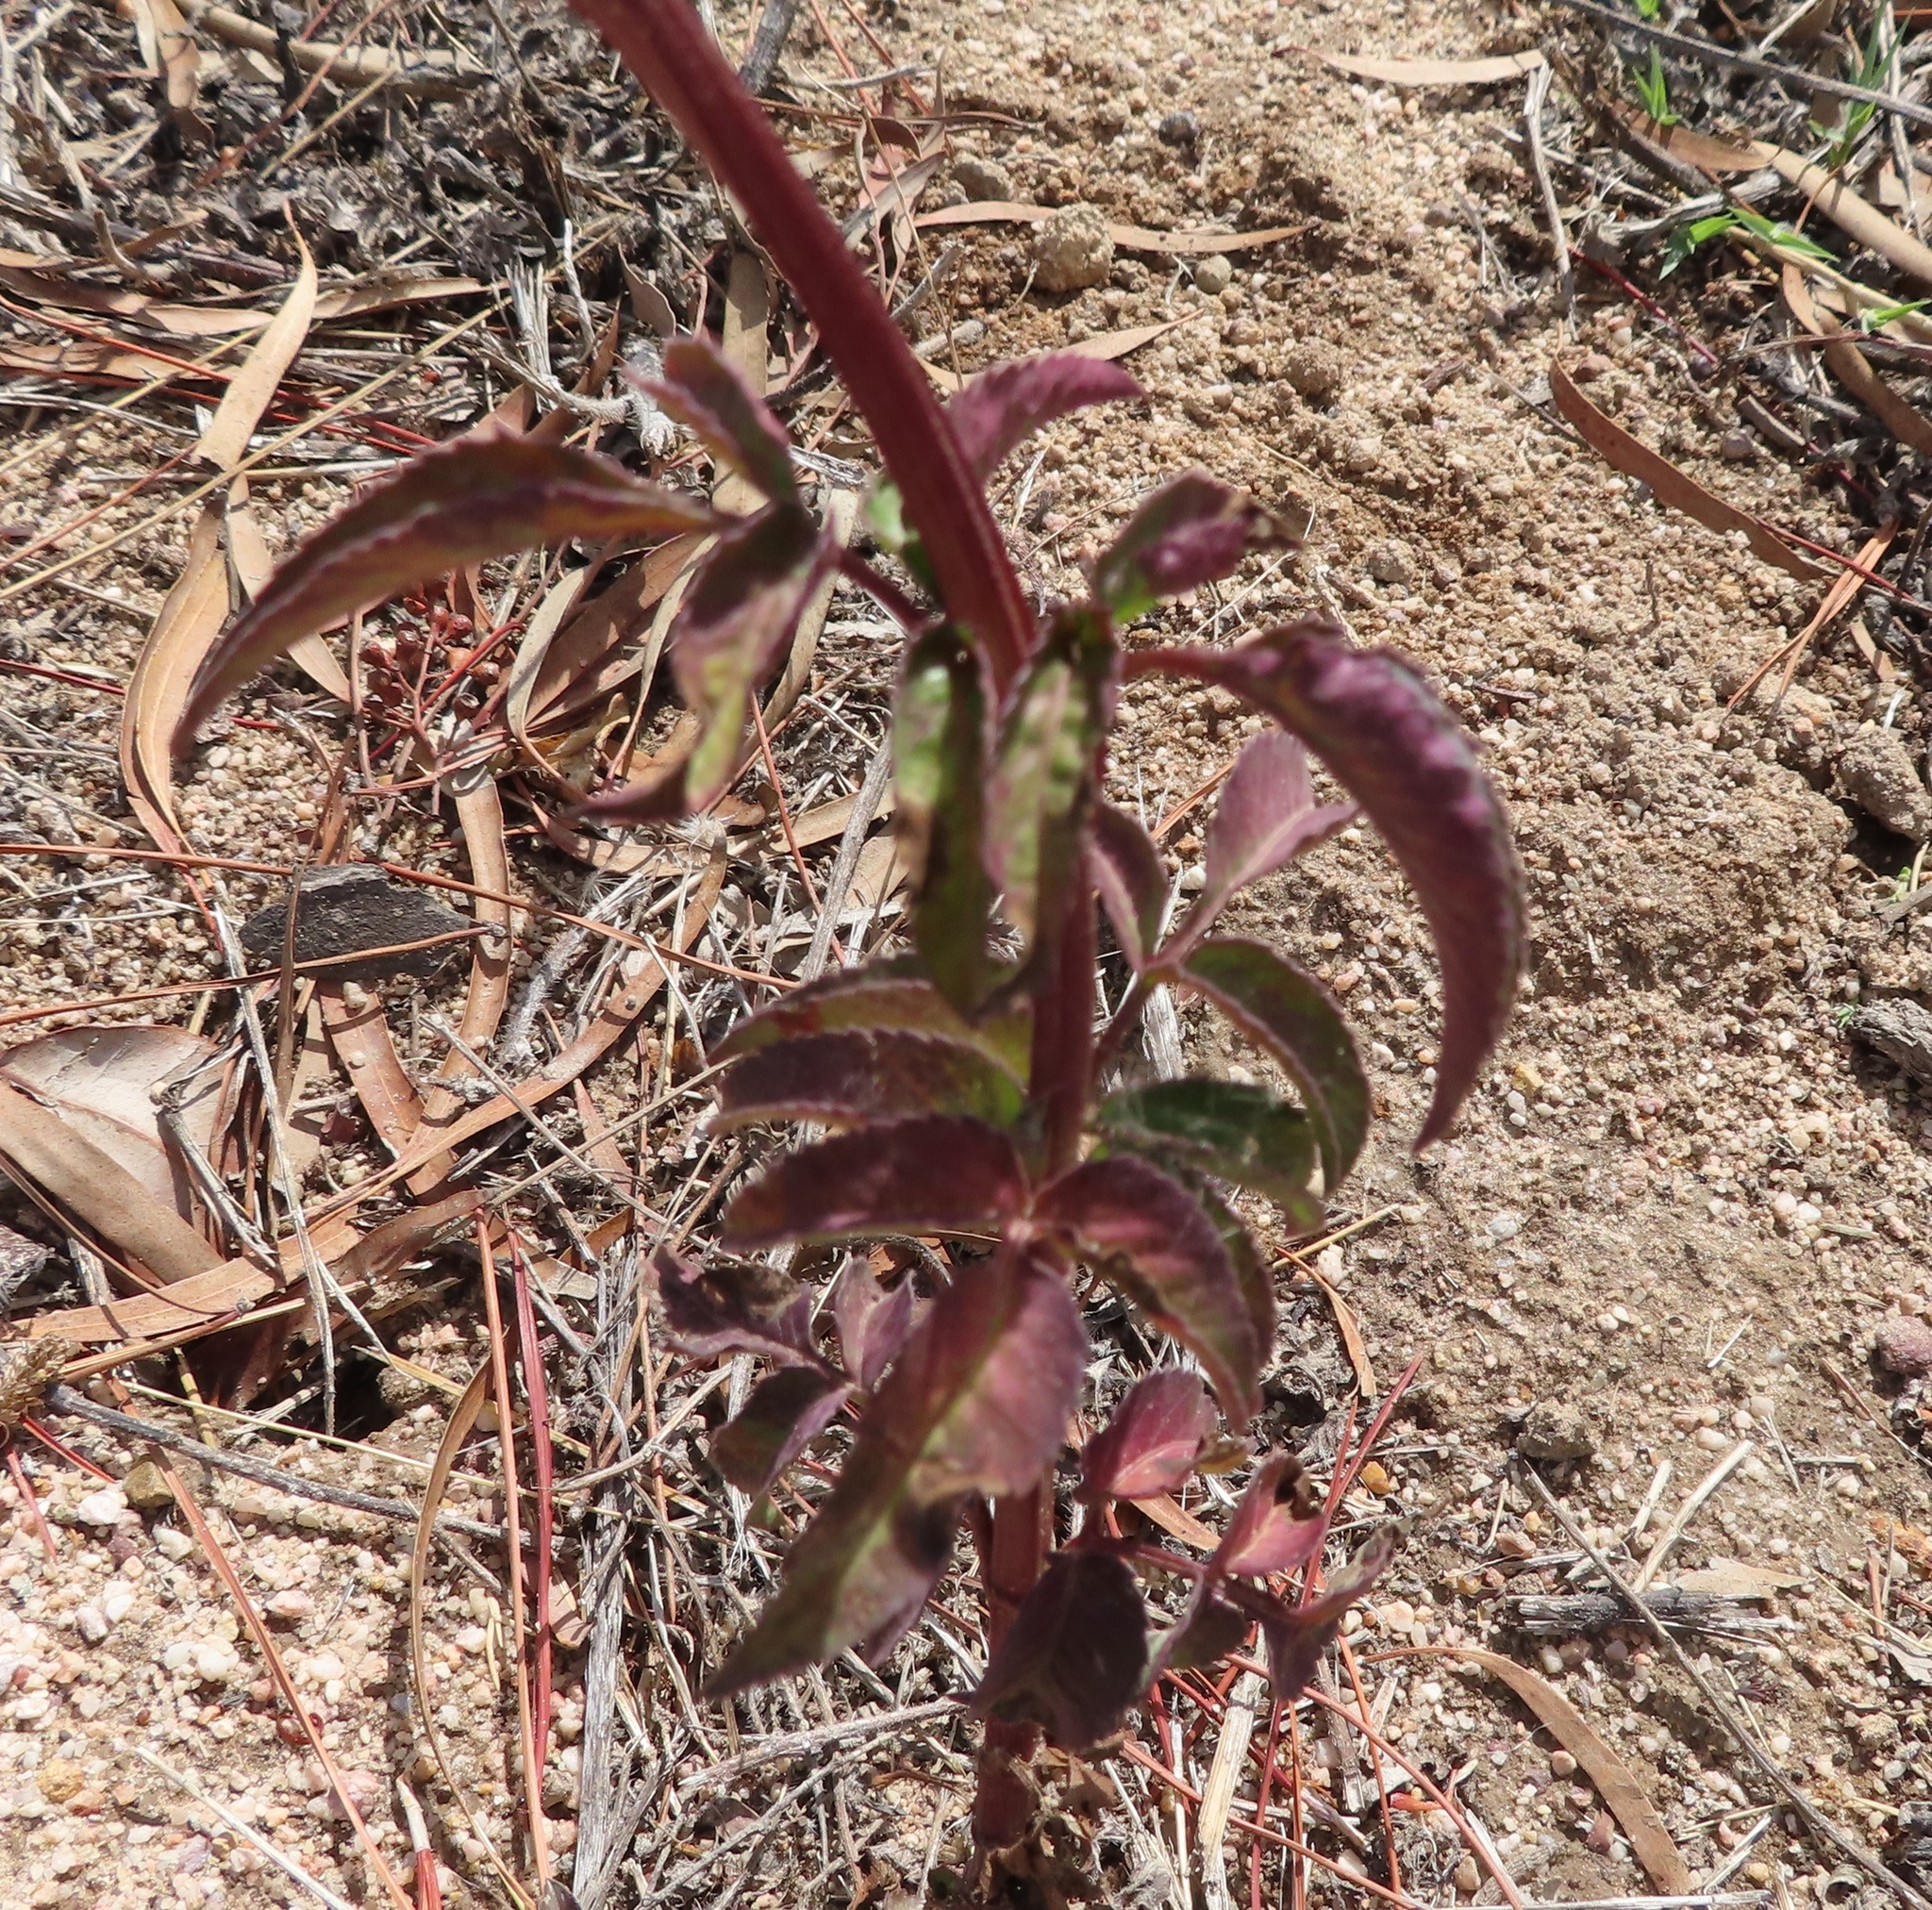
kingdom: Plantae
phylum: Tracheophyta
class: Magnoliopsida
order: Asterales
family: Asteraceae
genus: Bidens
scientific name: Bidens pilosa
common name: Black-jack
